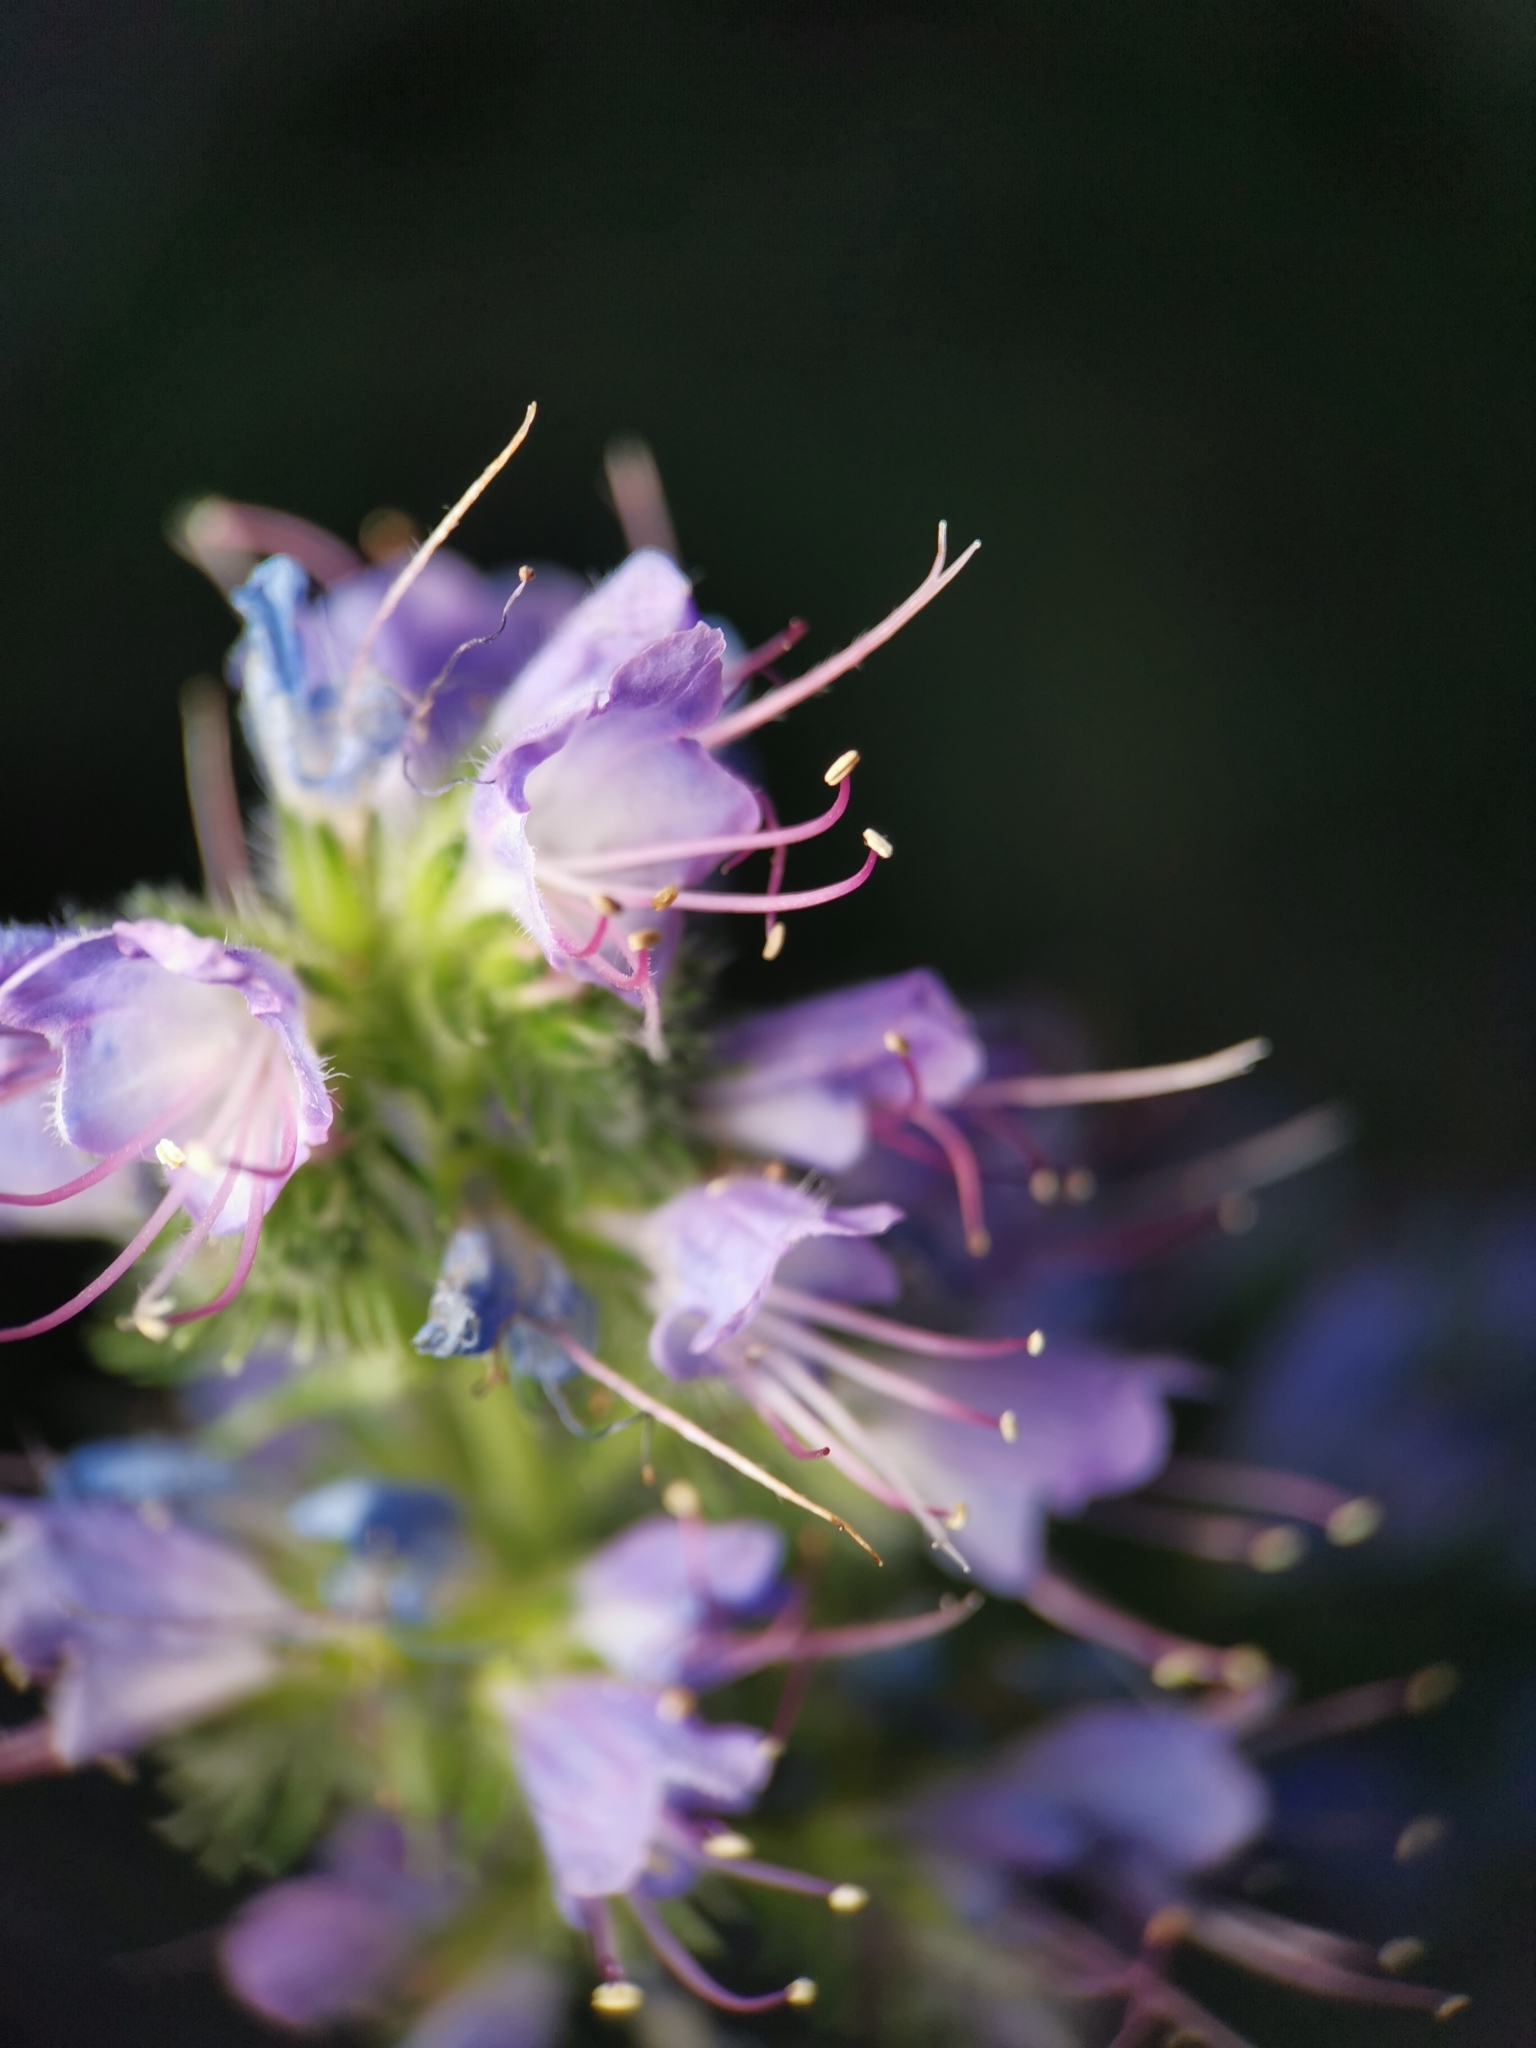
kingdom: Plantae
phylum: Tracheophyta
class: Magnoliopsida
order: Boraginales
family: Hydrophyllaceae
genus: Phacelia
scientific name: Phacelia tanacetifolia
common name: Phacelia
